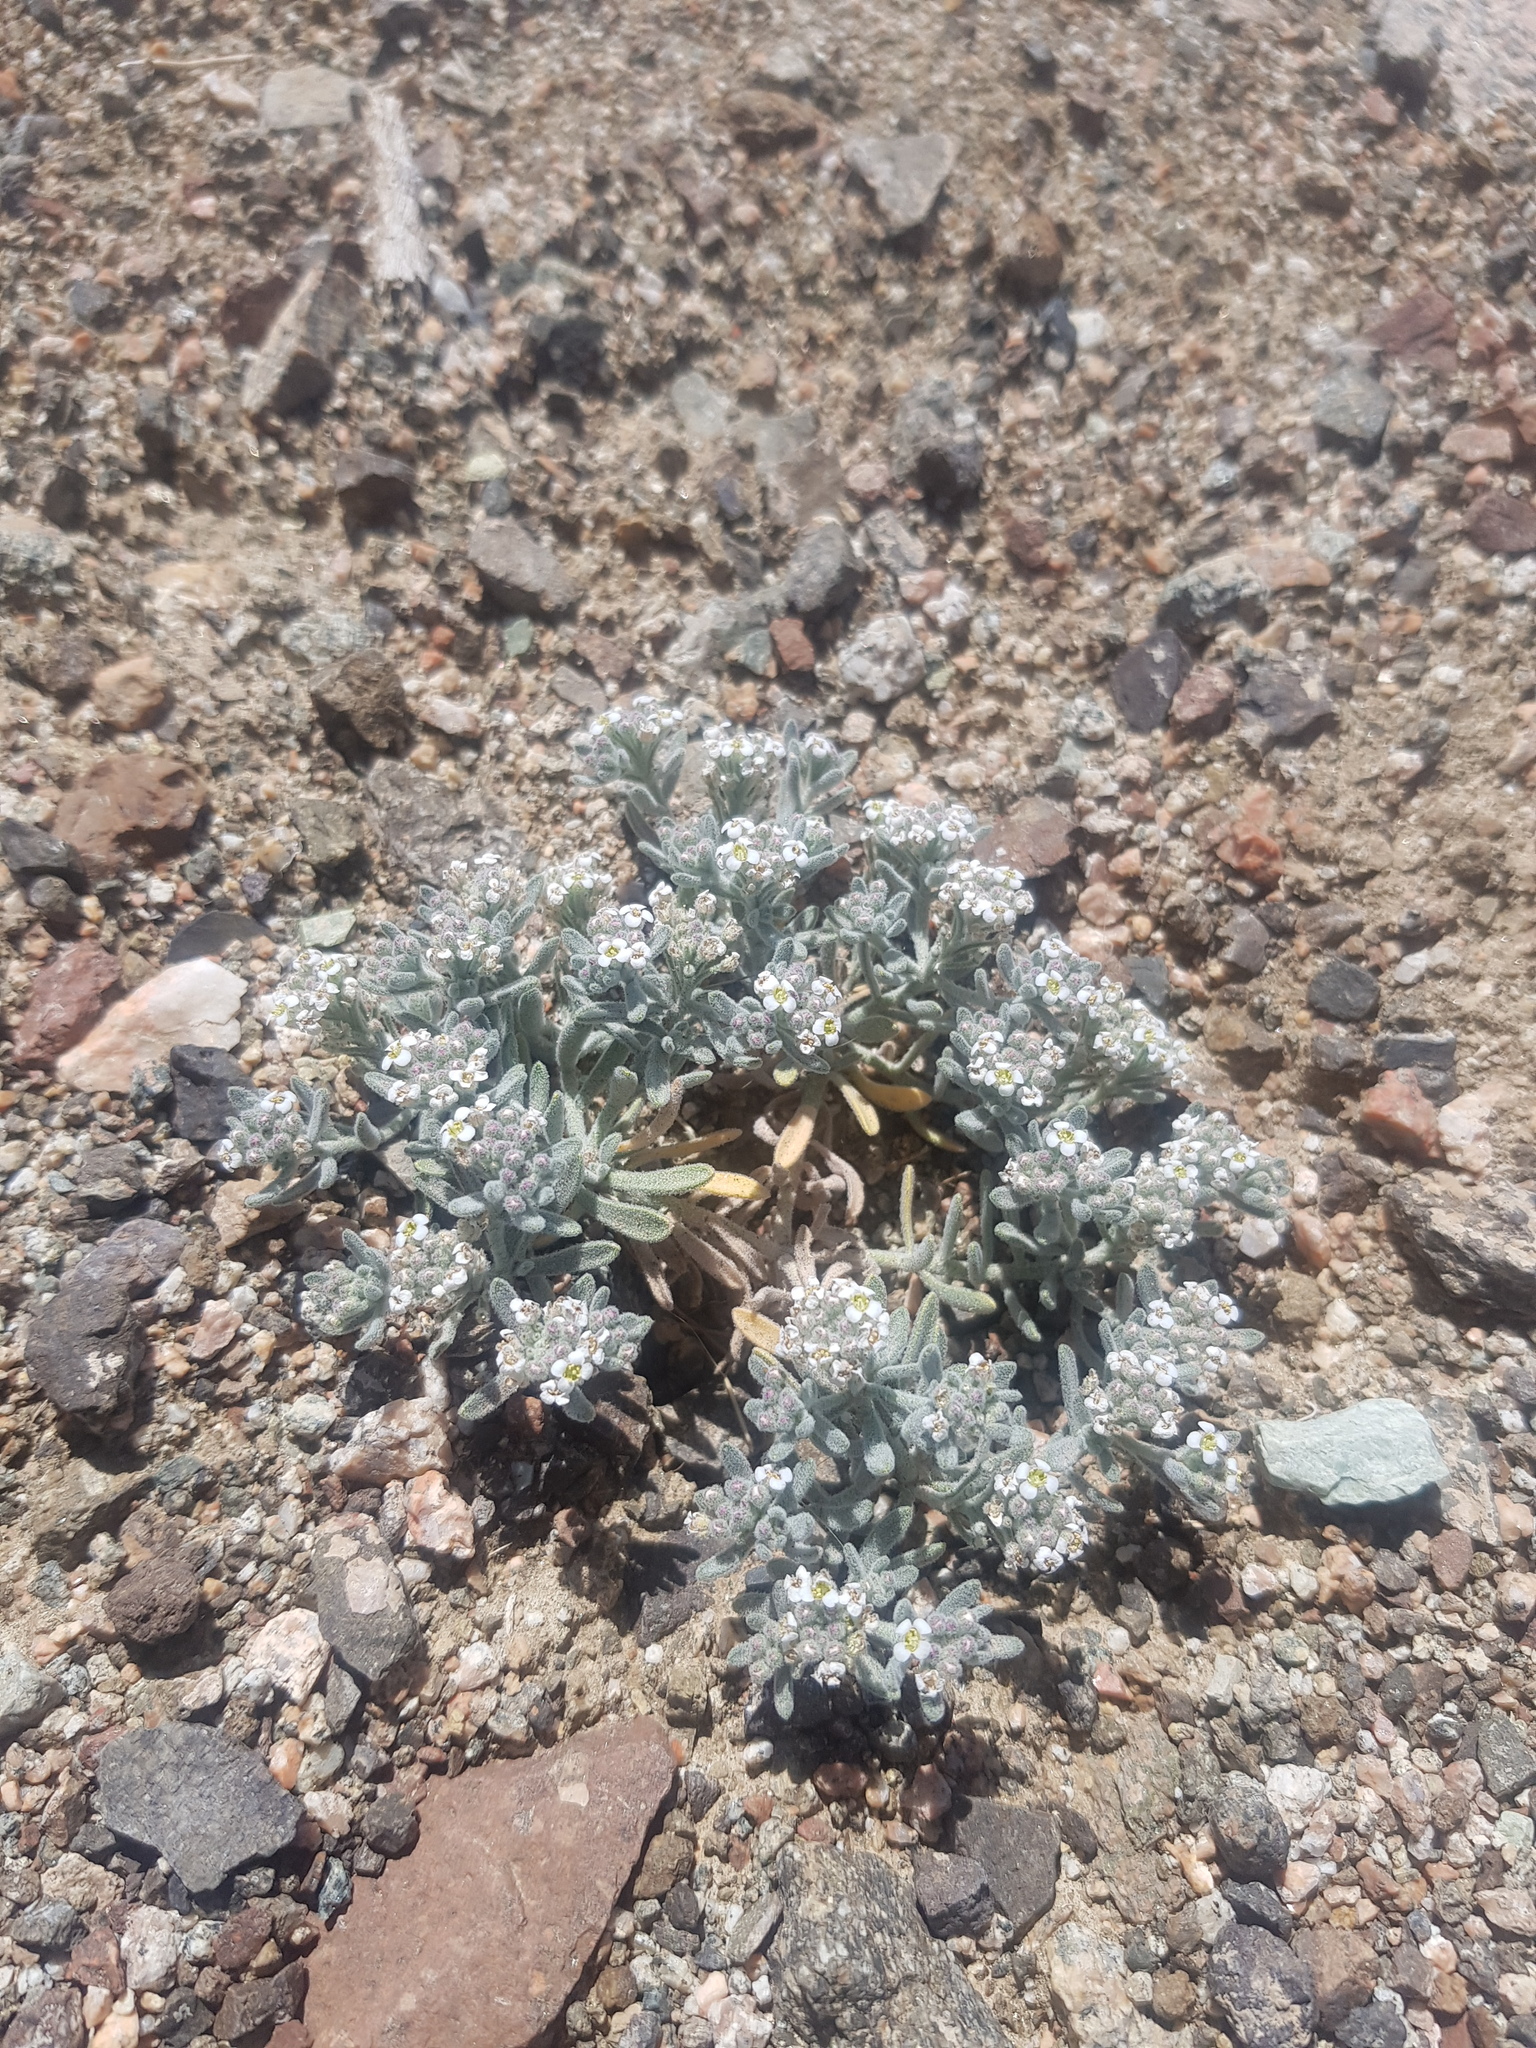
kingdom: Plantae
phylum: Tracheophyta
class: Magnoliopsida
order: Brassicales
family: Brassicaceae
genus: Stevenia
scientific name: Stevenia canescens
